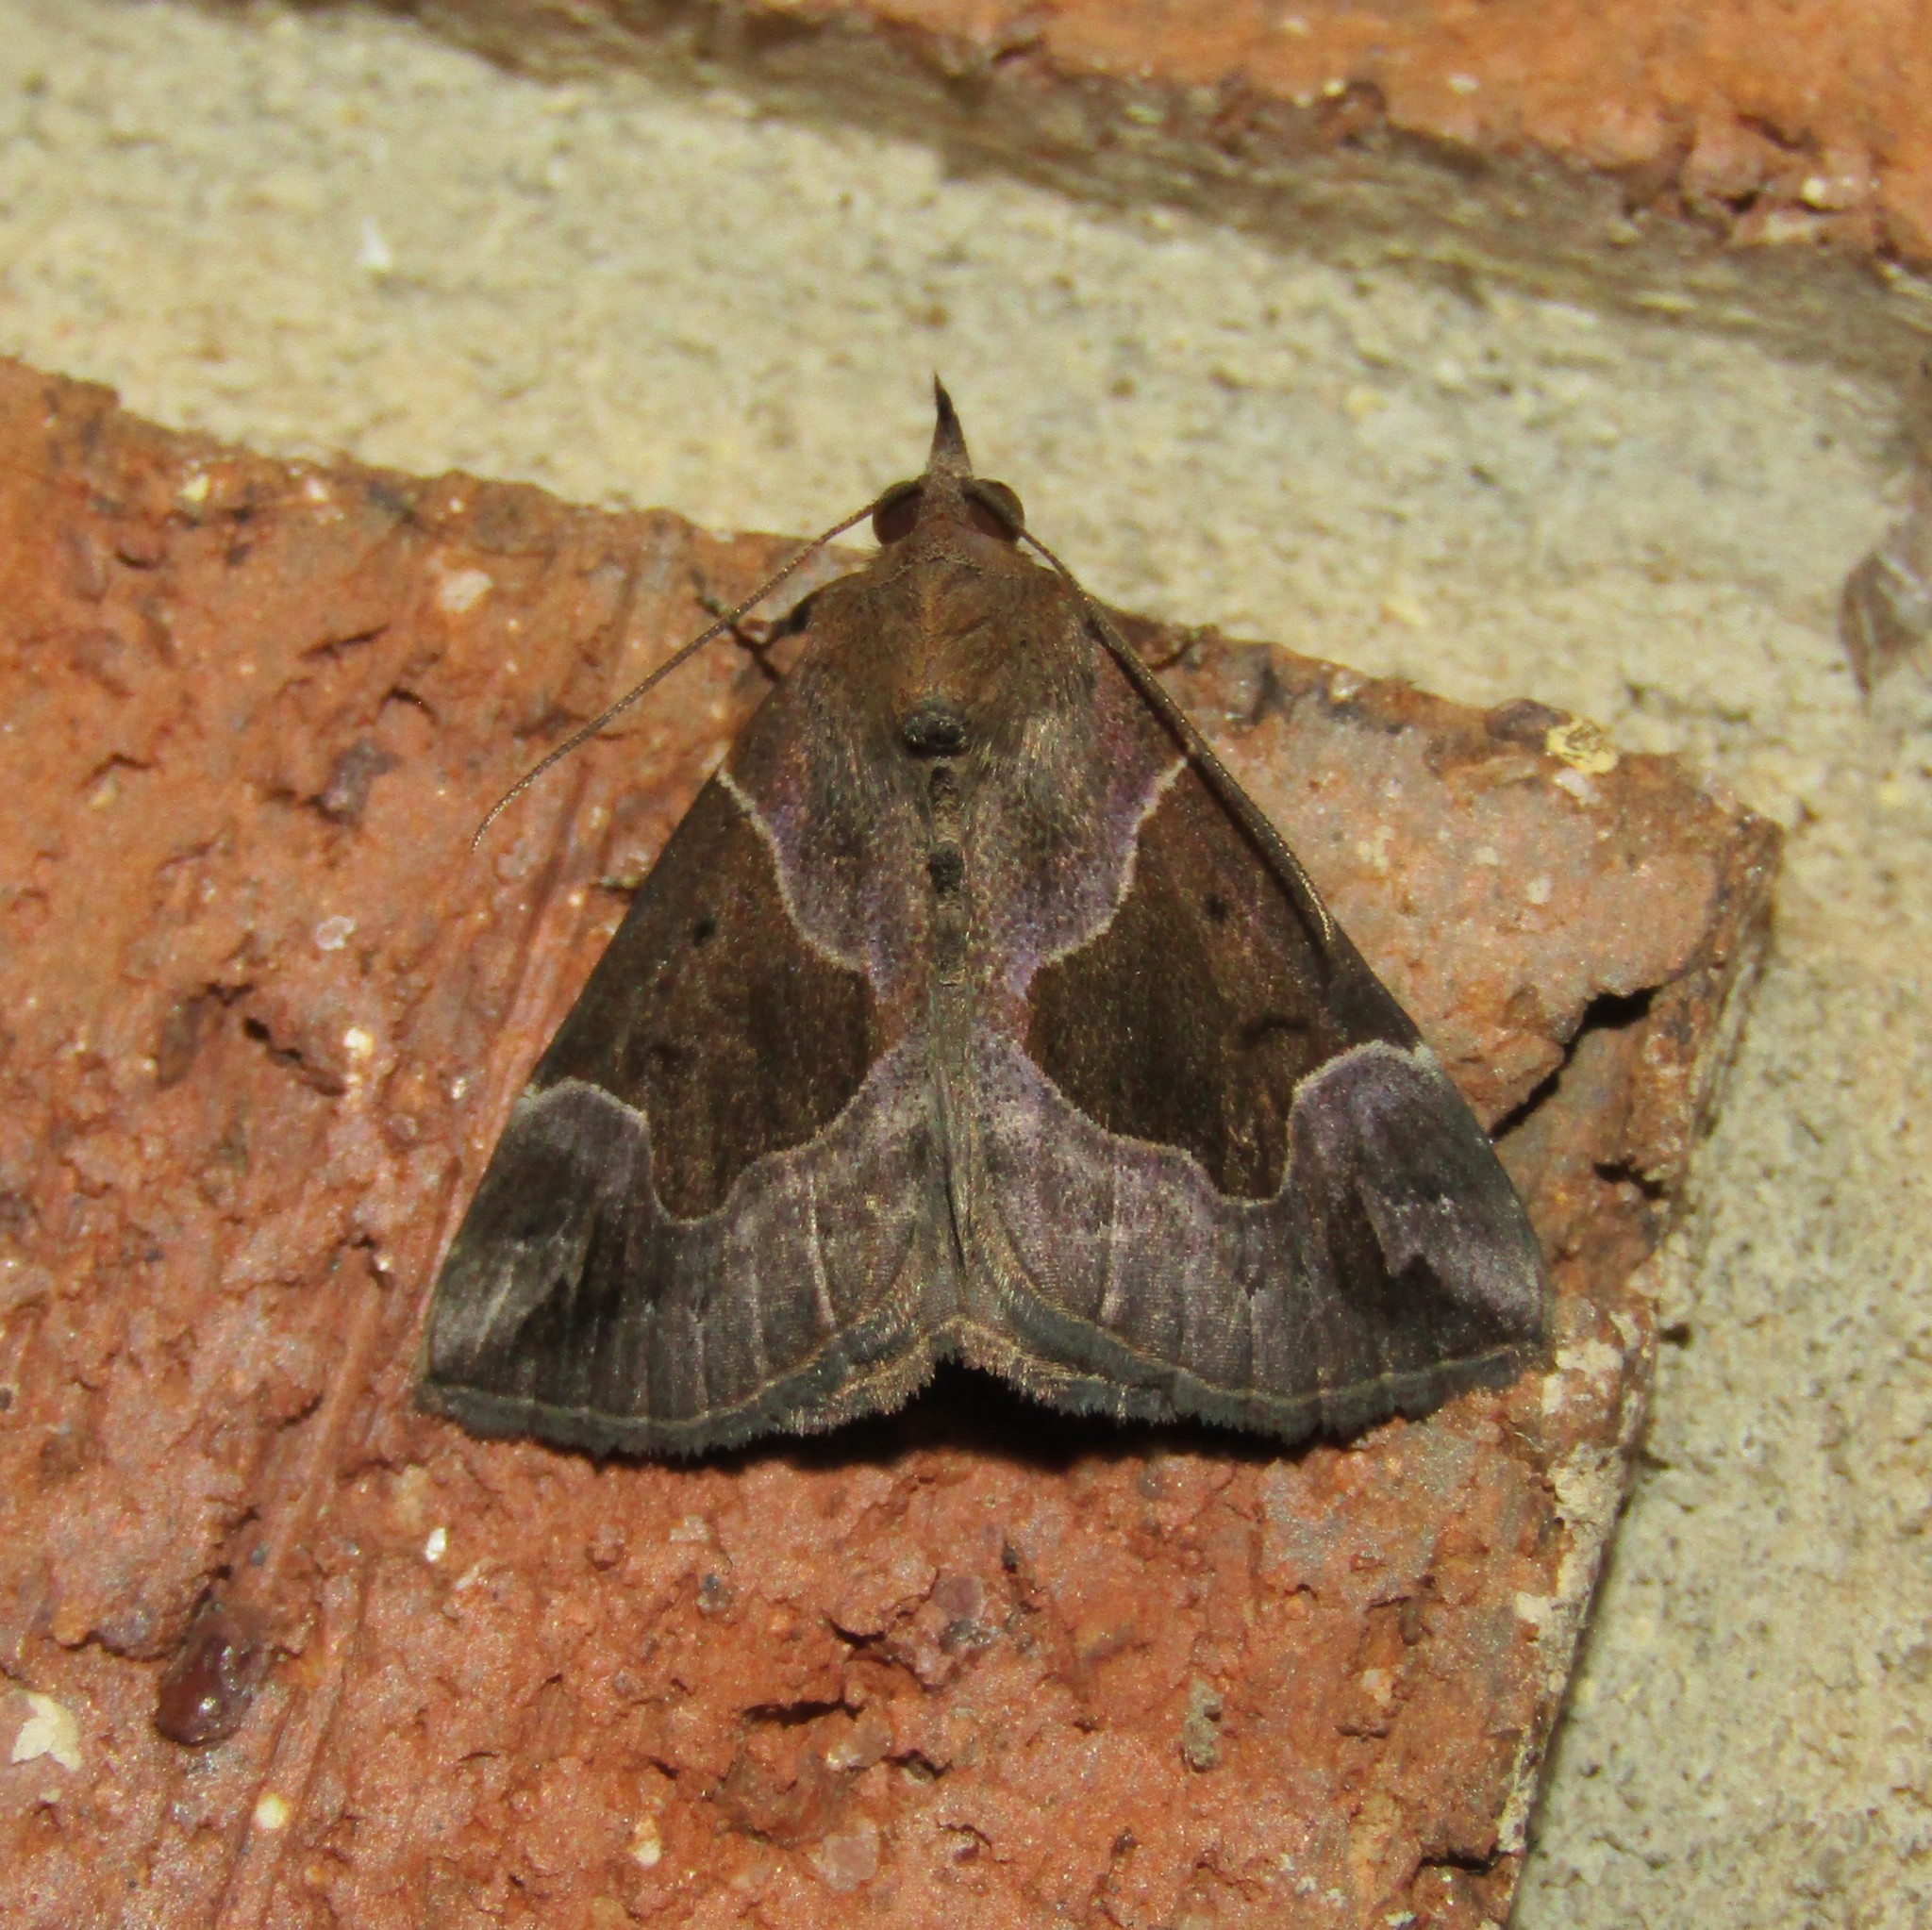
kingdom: Animalia
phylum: Arthropoda
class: Insecta
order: Lepidoptera
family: Erebidae
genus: Hypena
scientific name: Hypena manalis
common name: Flowing-line bomolocha moth
